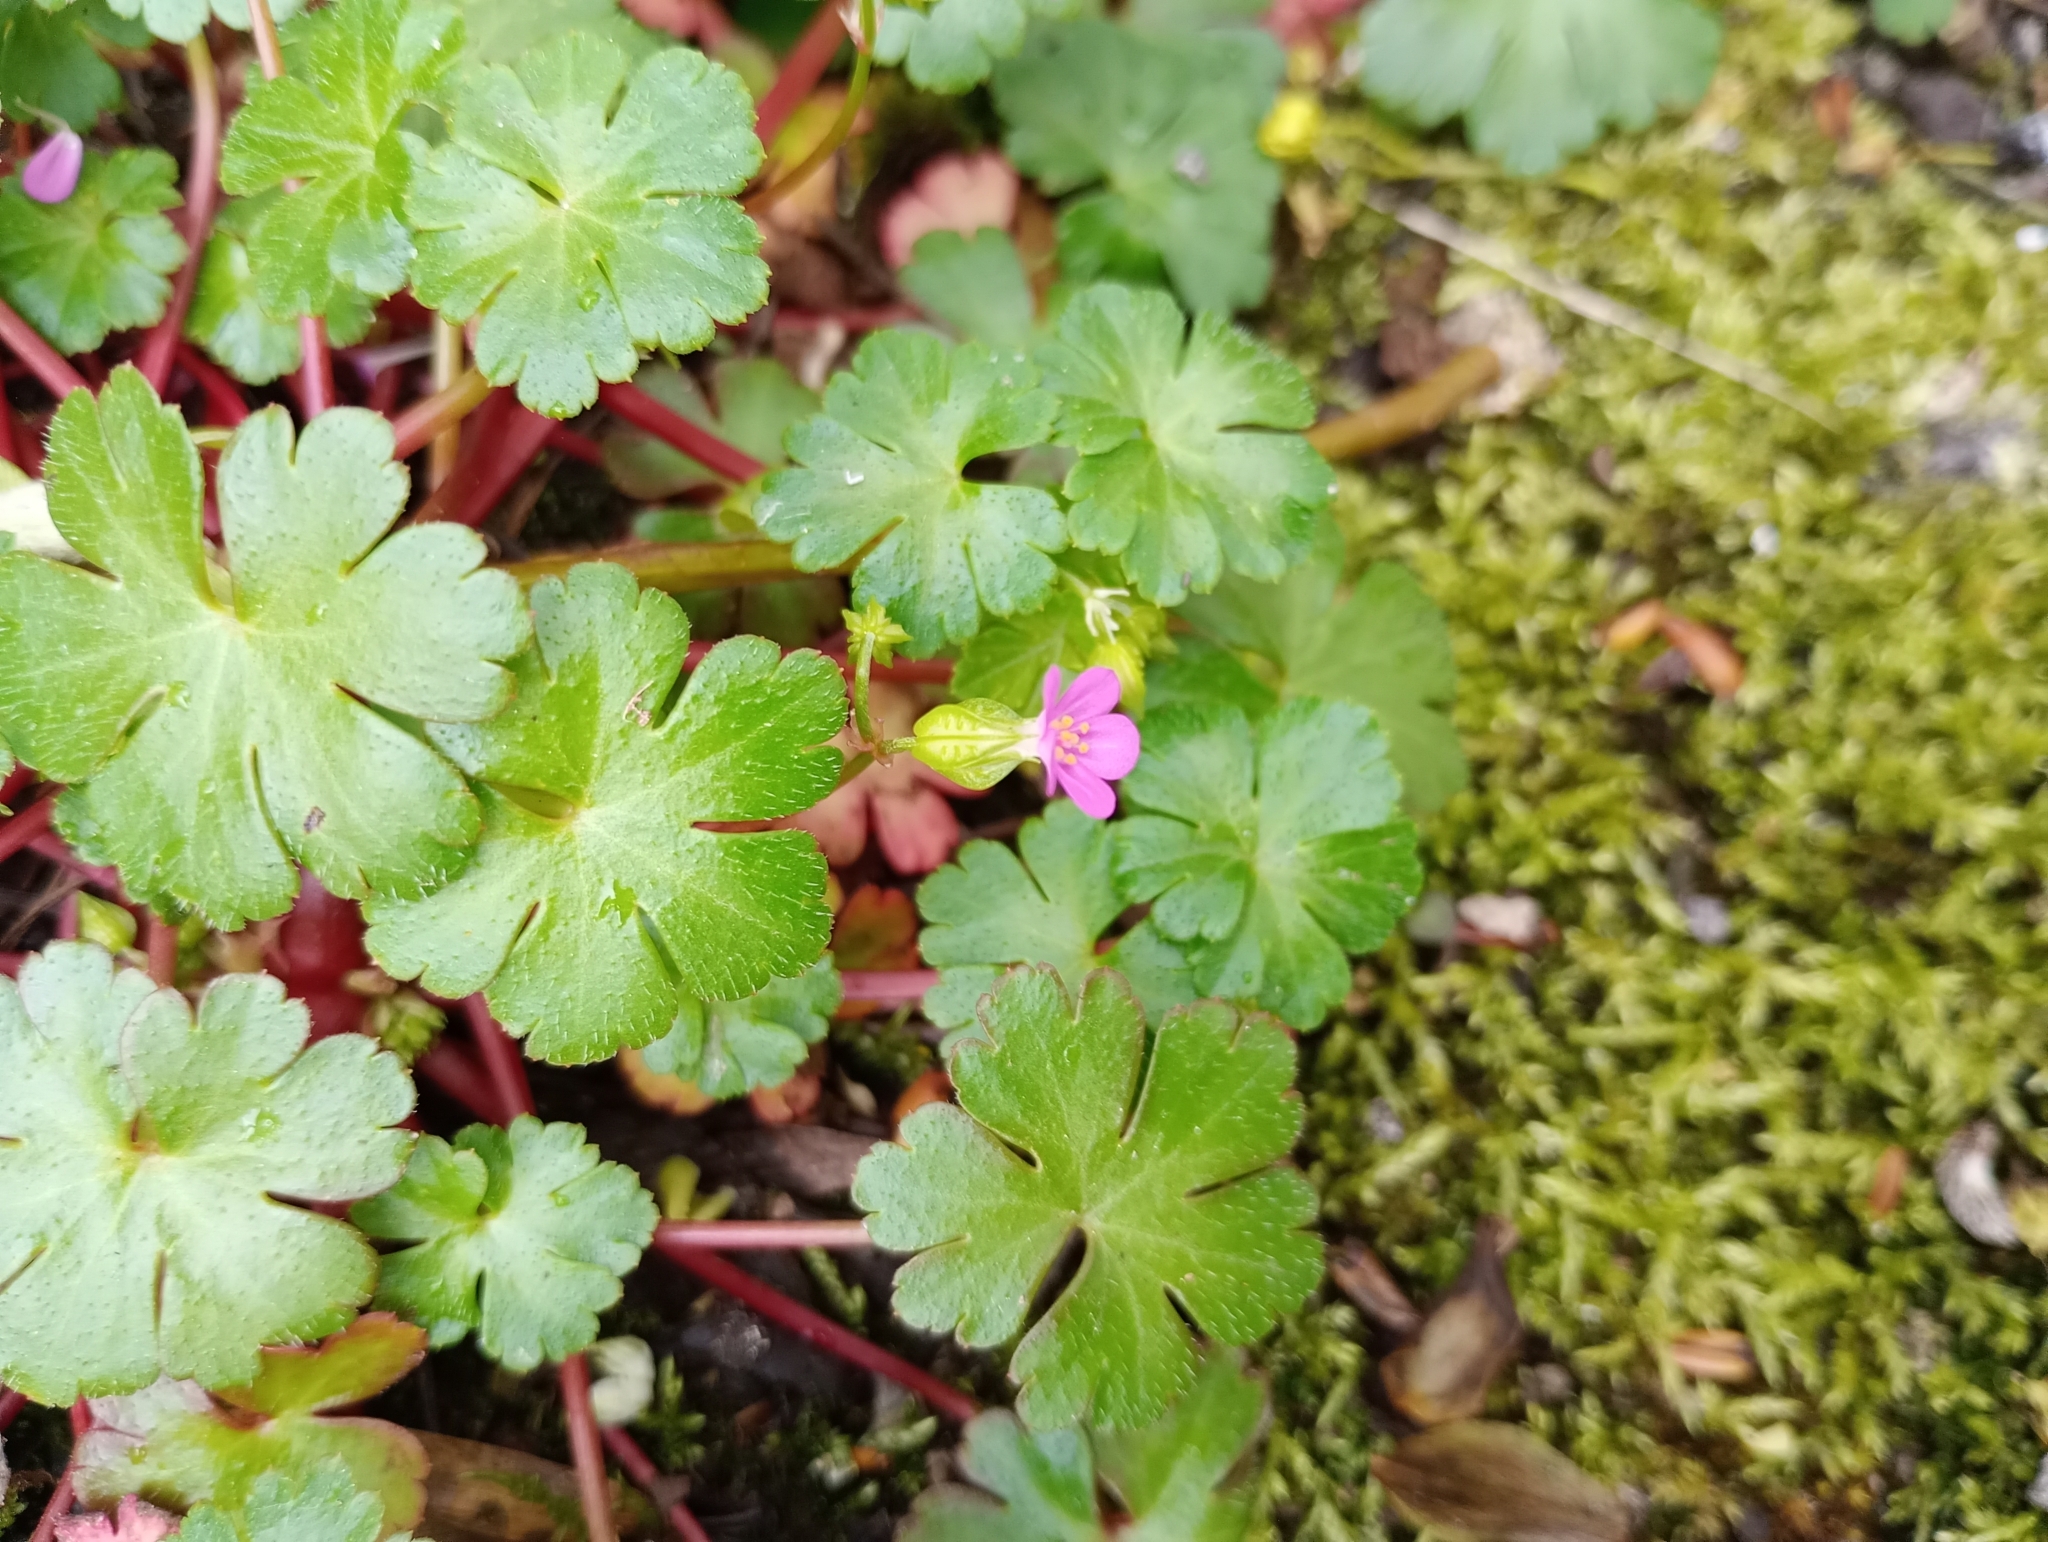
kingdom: Plantae
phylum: Tracheophyta
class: Magnoliopsida
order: Geraniales
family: Geraniaceae
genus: Geranium
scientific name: Geranium lucidum
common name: Shining crane's-bill
